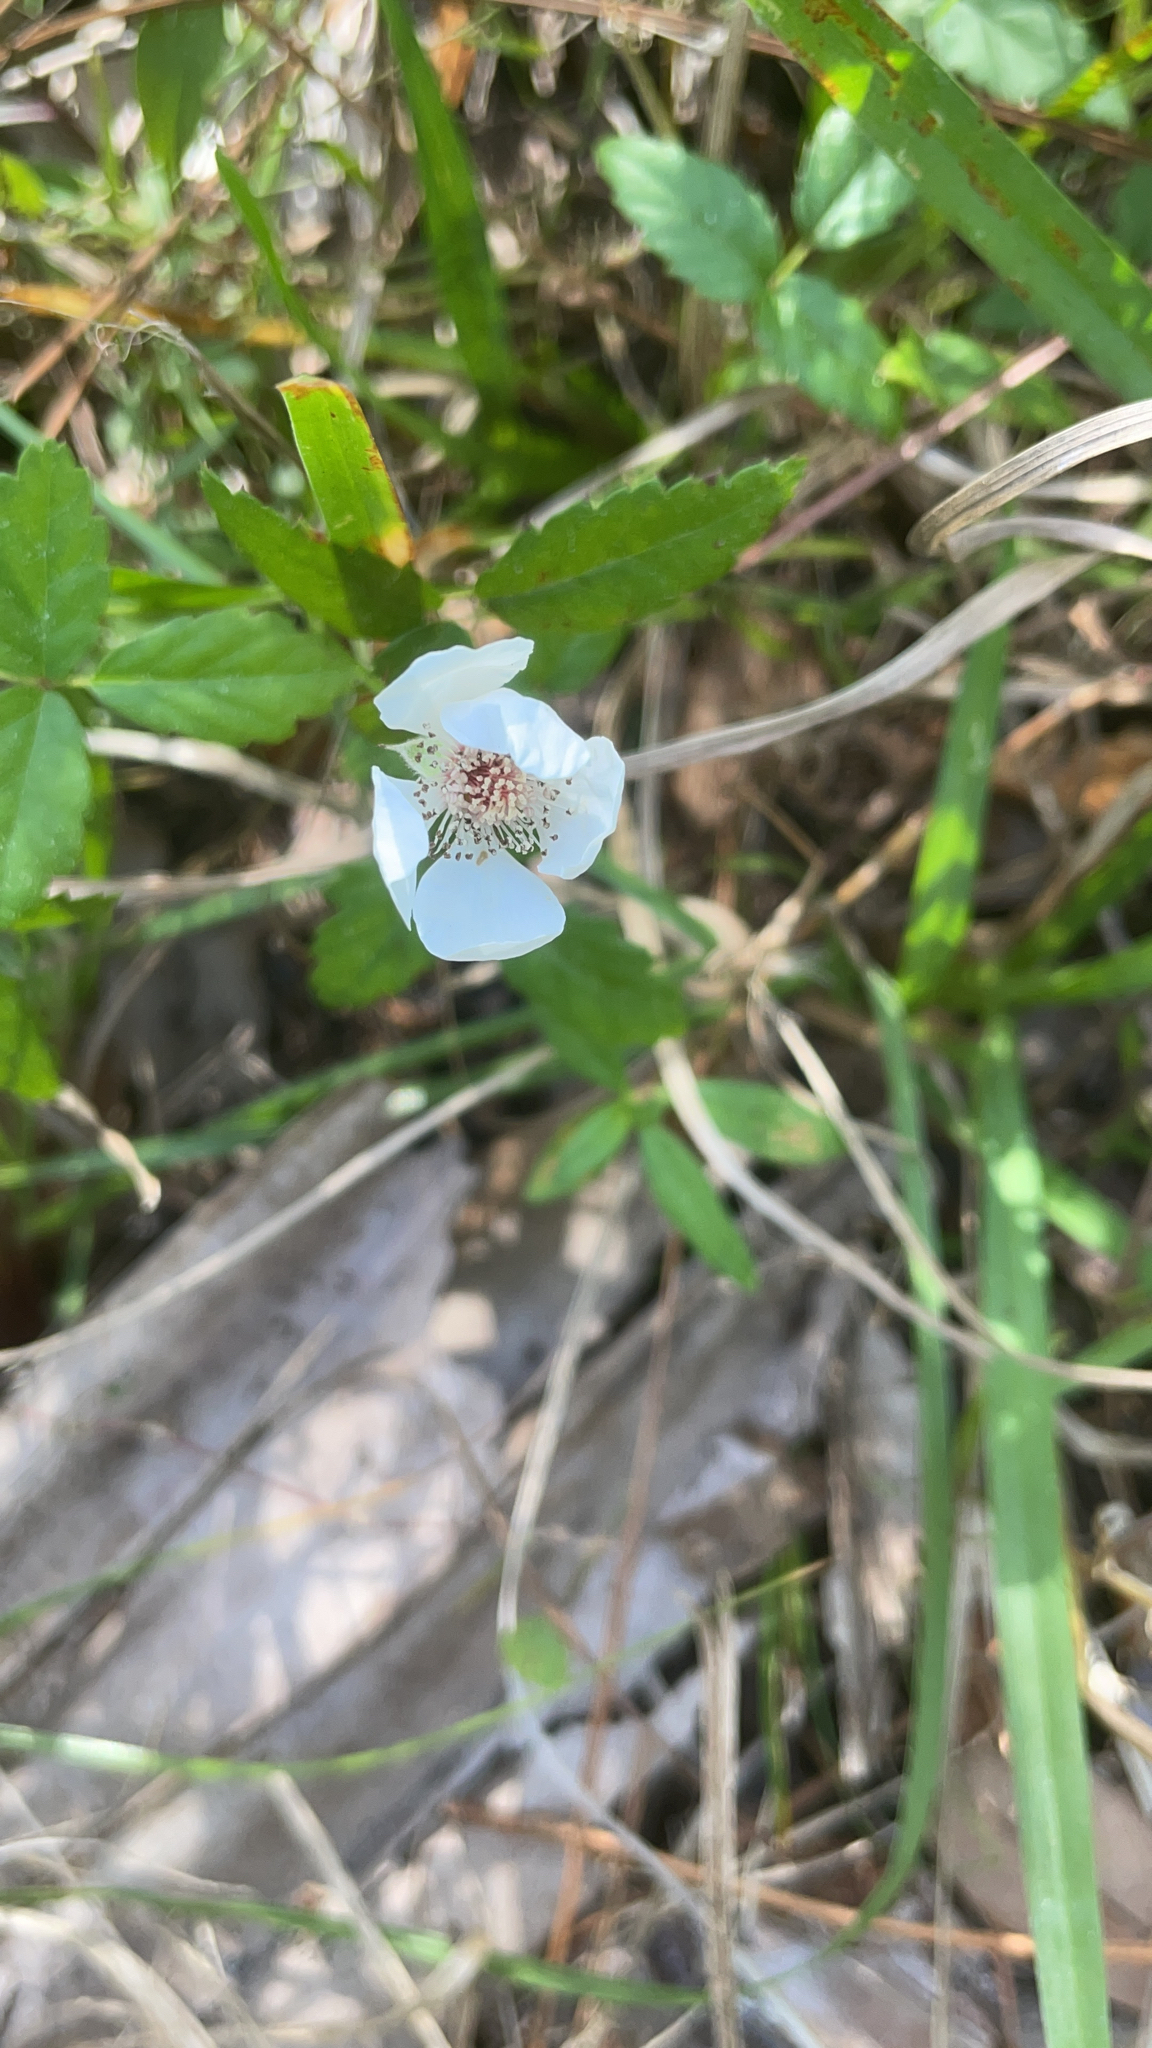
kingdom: Plantae
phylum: Tracheophyta
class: Magnoliopsida
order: Rosales
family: Rosaceae
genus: Rubus
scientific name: Rubus trivialis
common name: Southern dewberry
